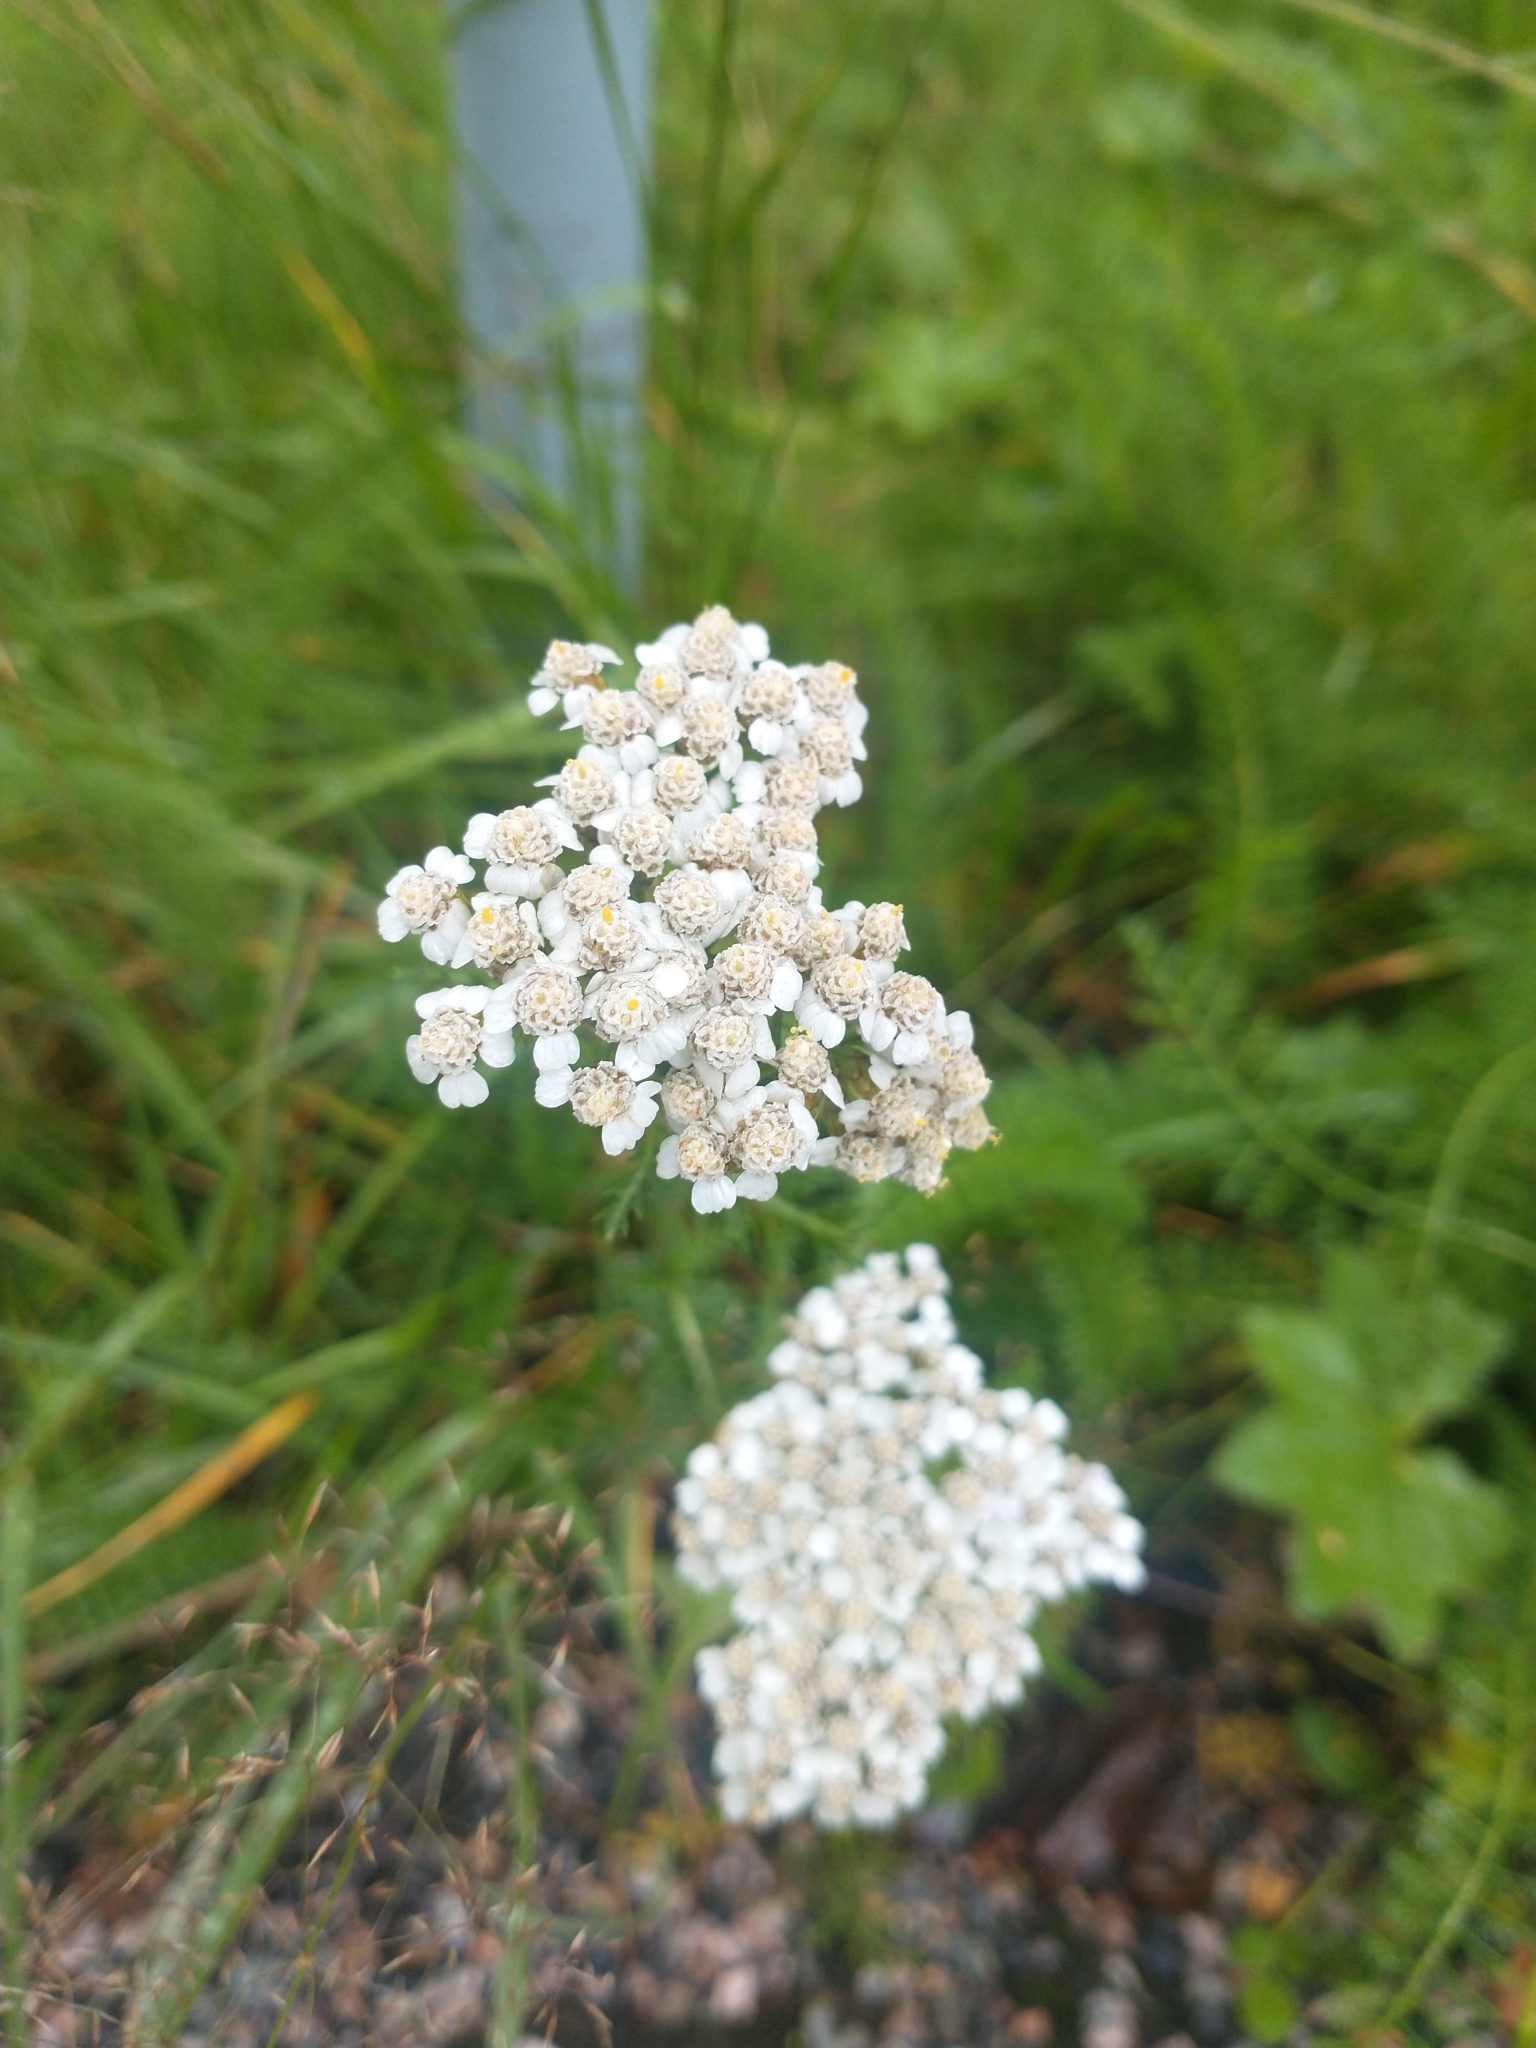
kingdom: Plantae
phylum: Tracheophyta
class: Magnoliopsida
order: Asterales
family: Asteraceae
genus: Achillea
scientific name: Achillea millefolium
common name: Yarrow
